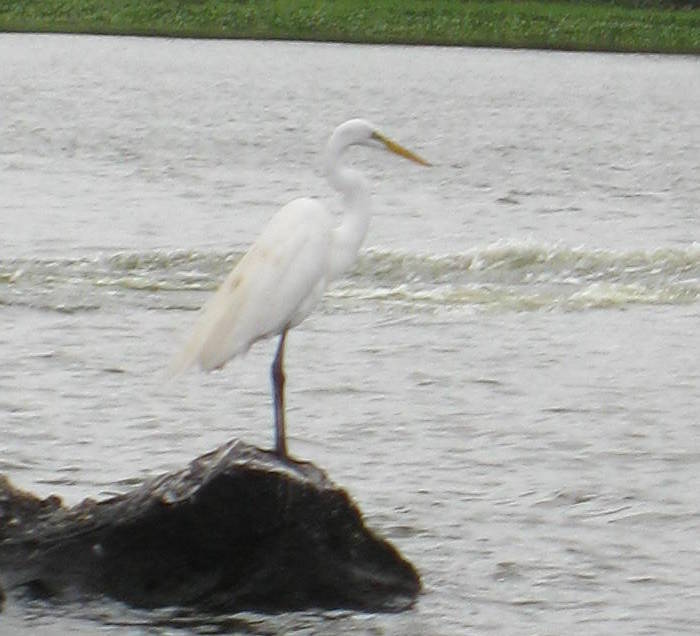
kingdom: Animalia
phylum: Chordata
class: Aves
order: Pelecaniformes
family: Ardeidae
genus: Ardea
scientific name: Ardea alba
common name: Great egret
